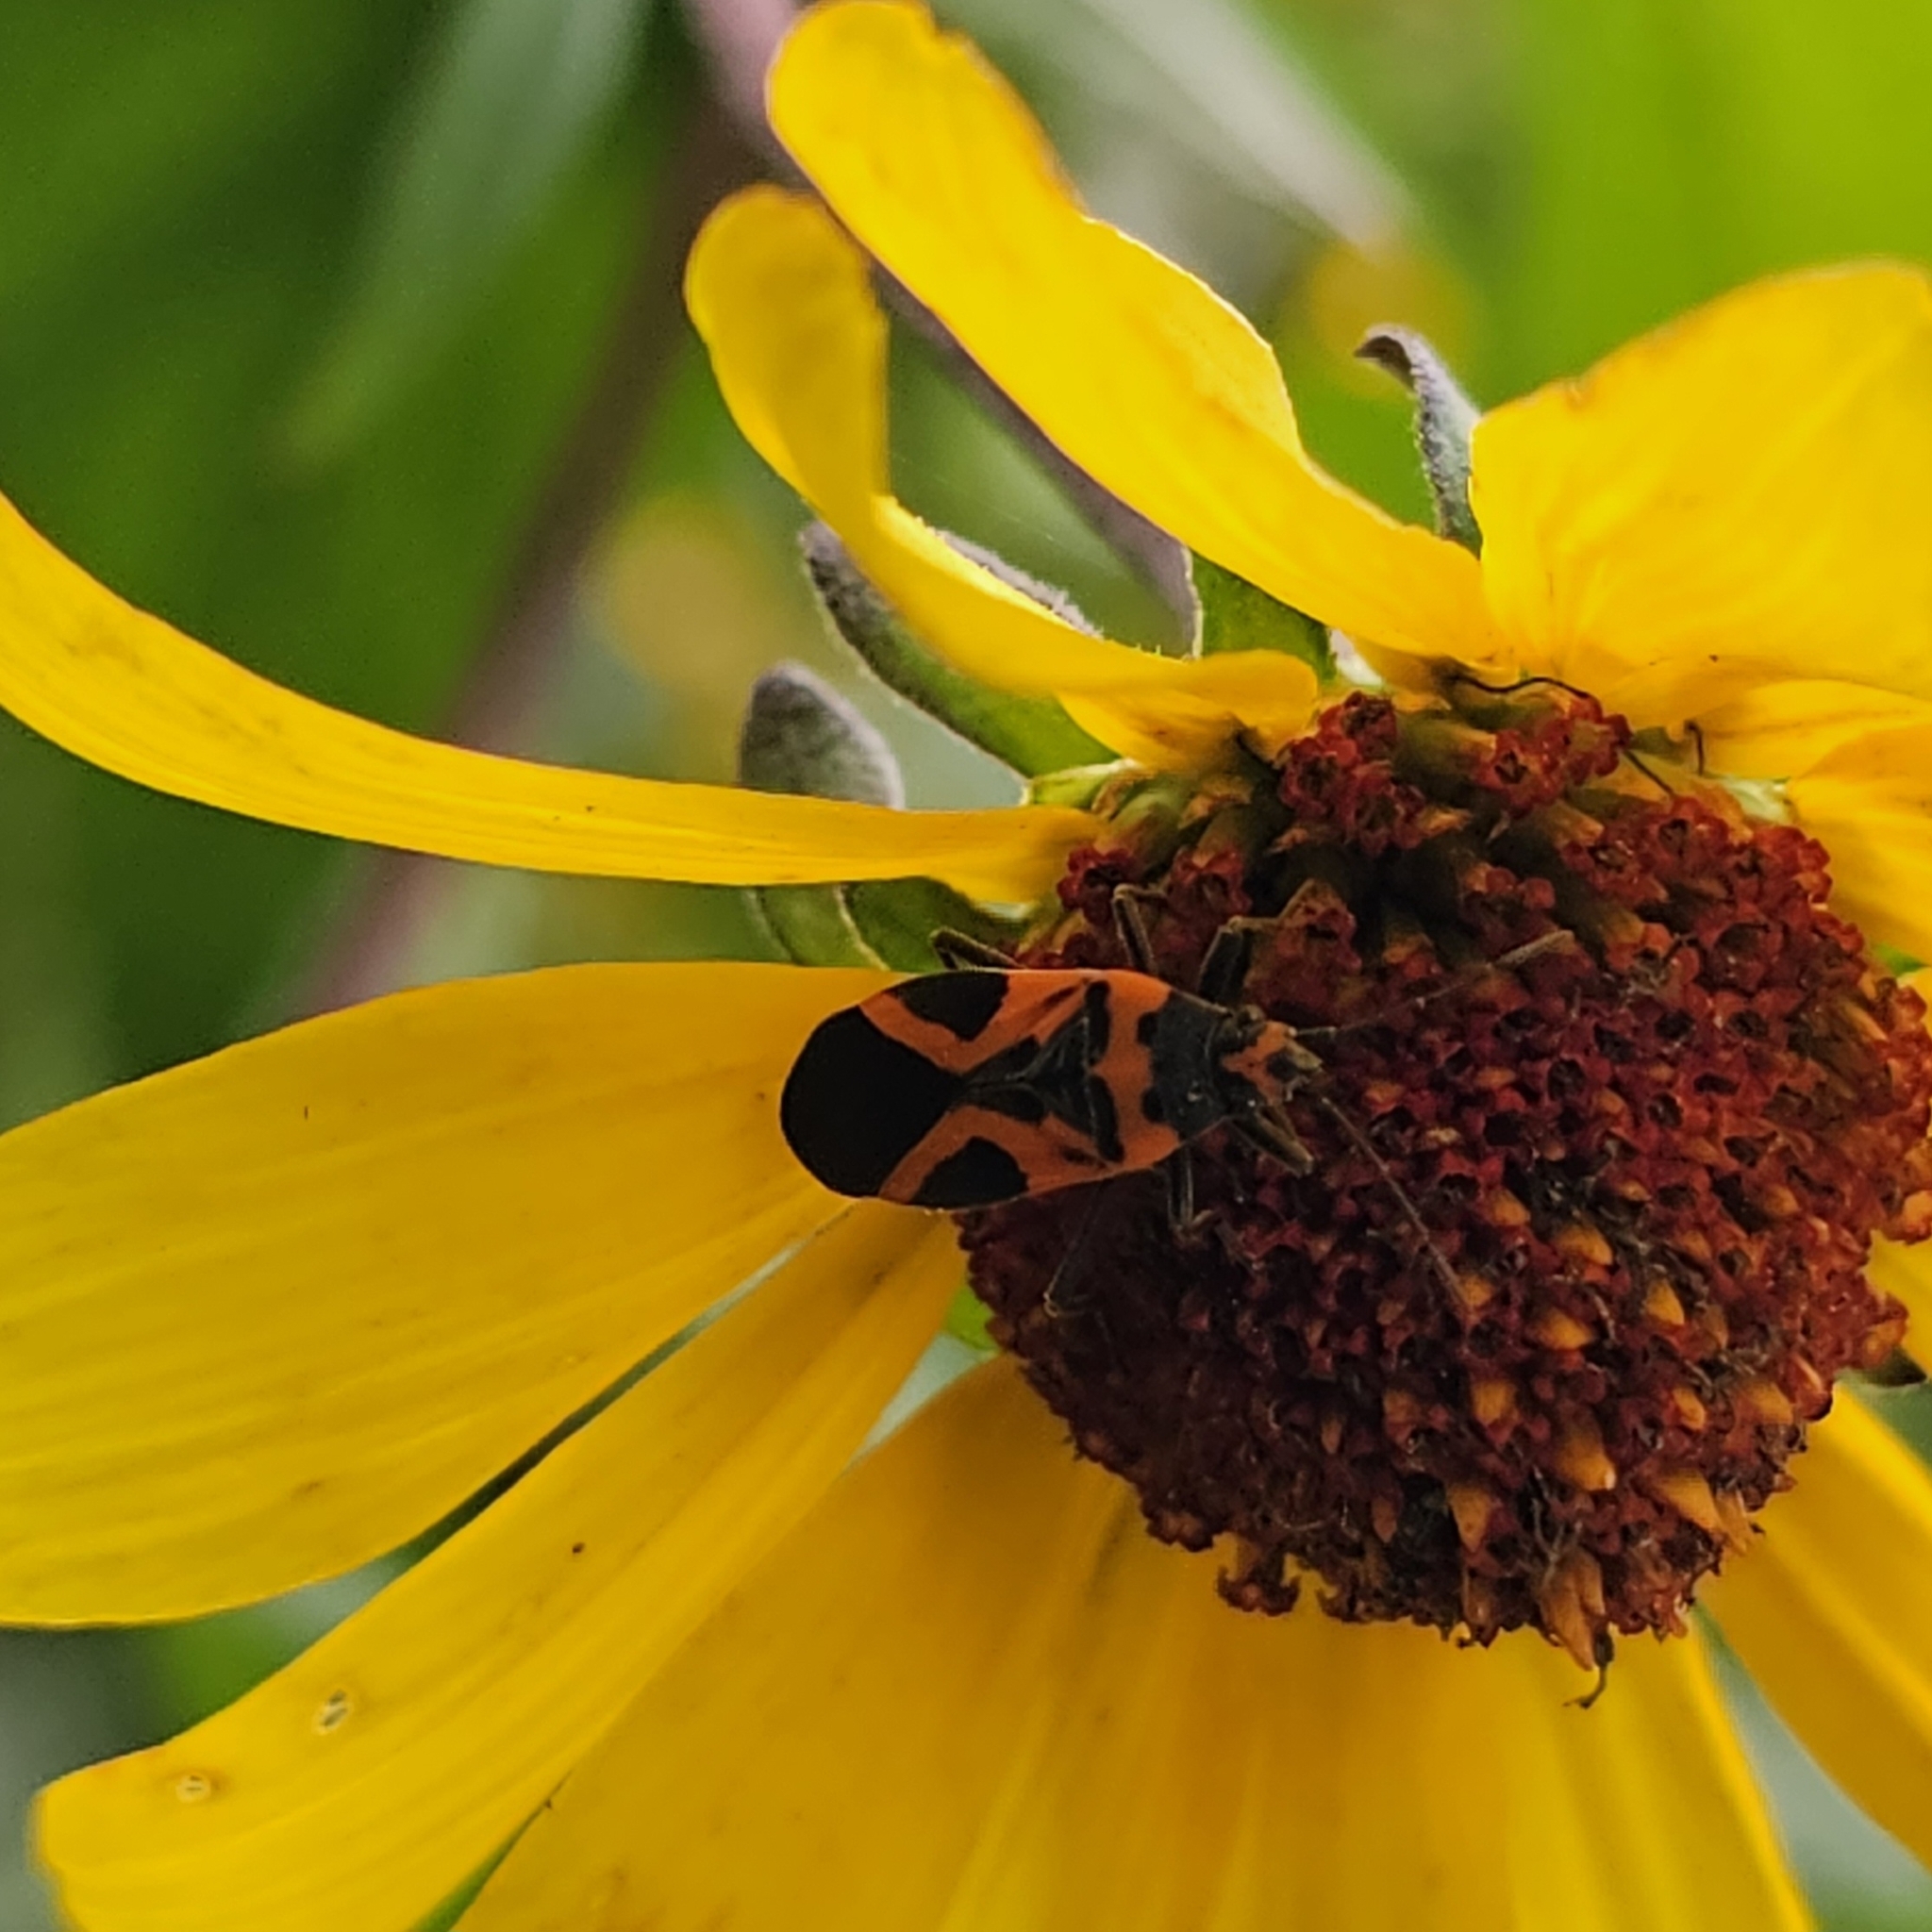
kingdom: Animalia
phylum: Arthropoda
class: Insecta
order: Hemiptera
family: Lygaeidae
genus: Lygaeus
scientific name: Lygaeus turcicus
